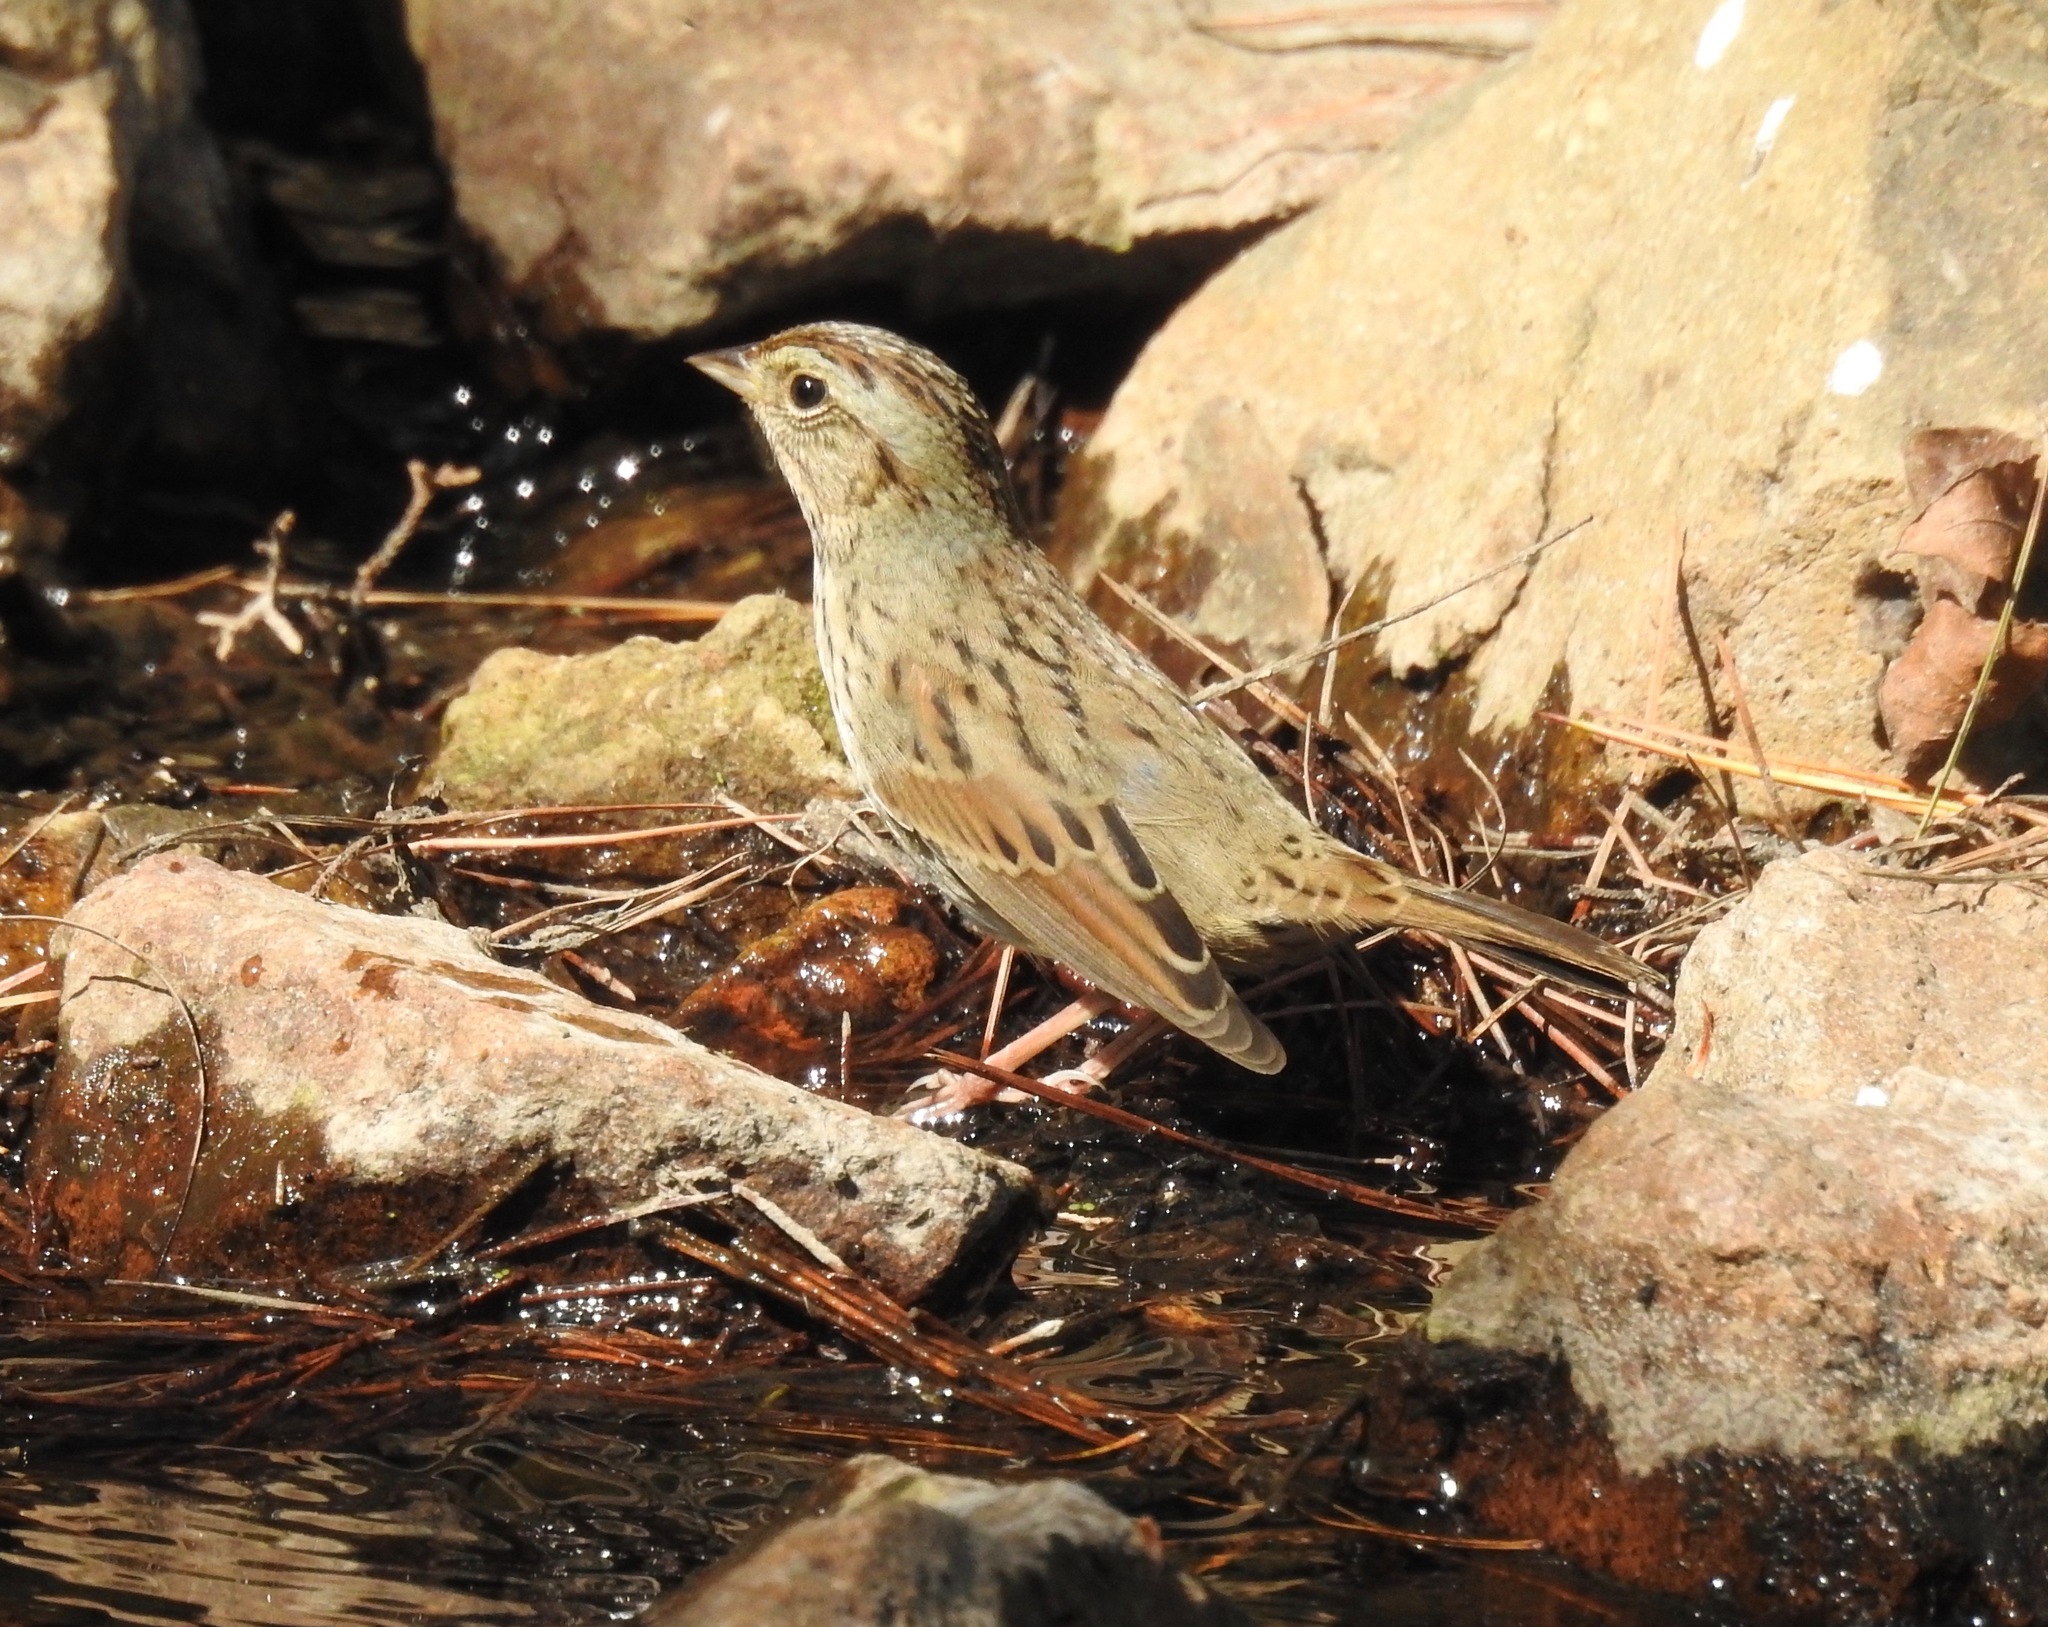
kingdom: Animalia
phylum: Chordata
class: Aves
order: Passeriformes
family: Passerellidae
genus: Melospiza
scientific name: Melospiza lincolnii
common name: Lincoln's sparrow
